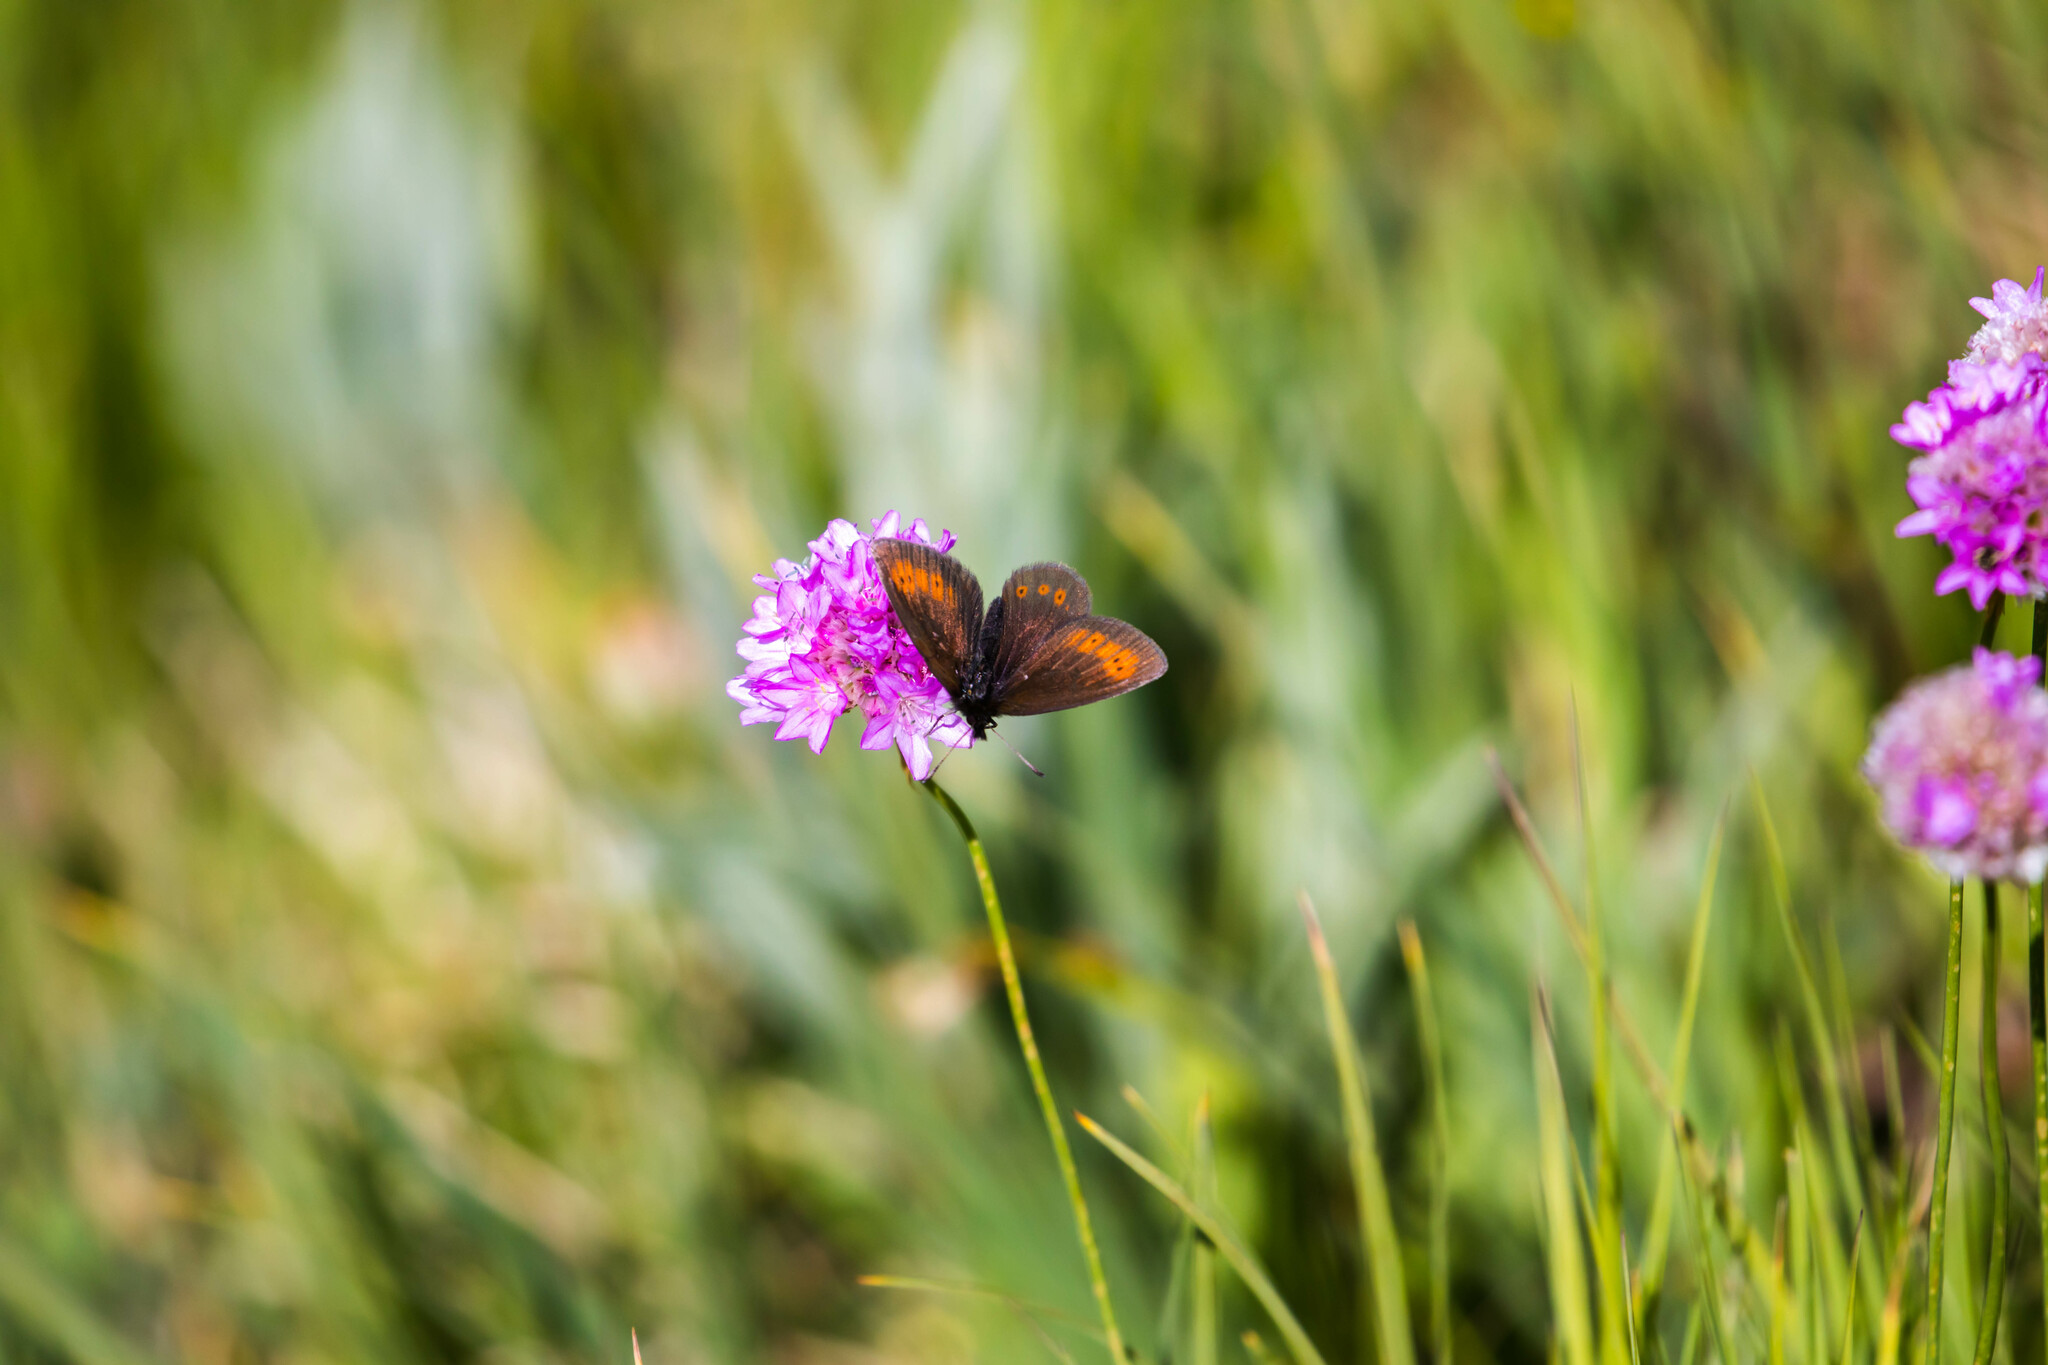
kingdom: Animalia
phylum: Arthropoda
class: Insecta
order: Lepidoptera
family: Nymphalidae
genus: Erebia
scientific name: Erebia epiphron
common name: Mountain ringlet
